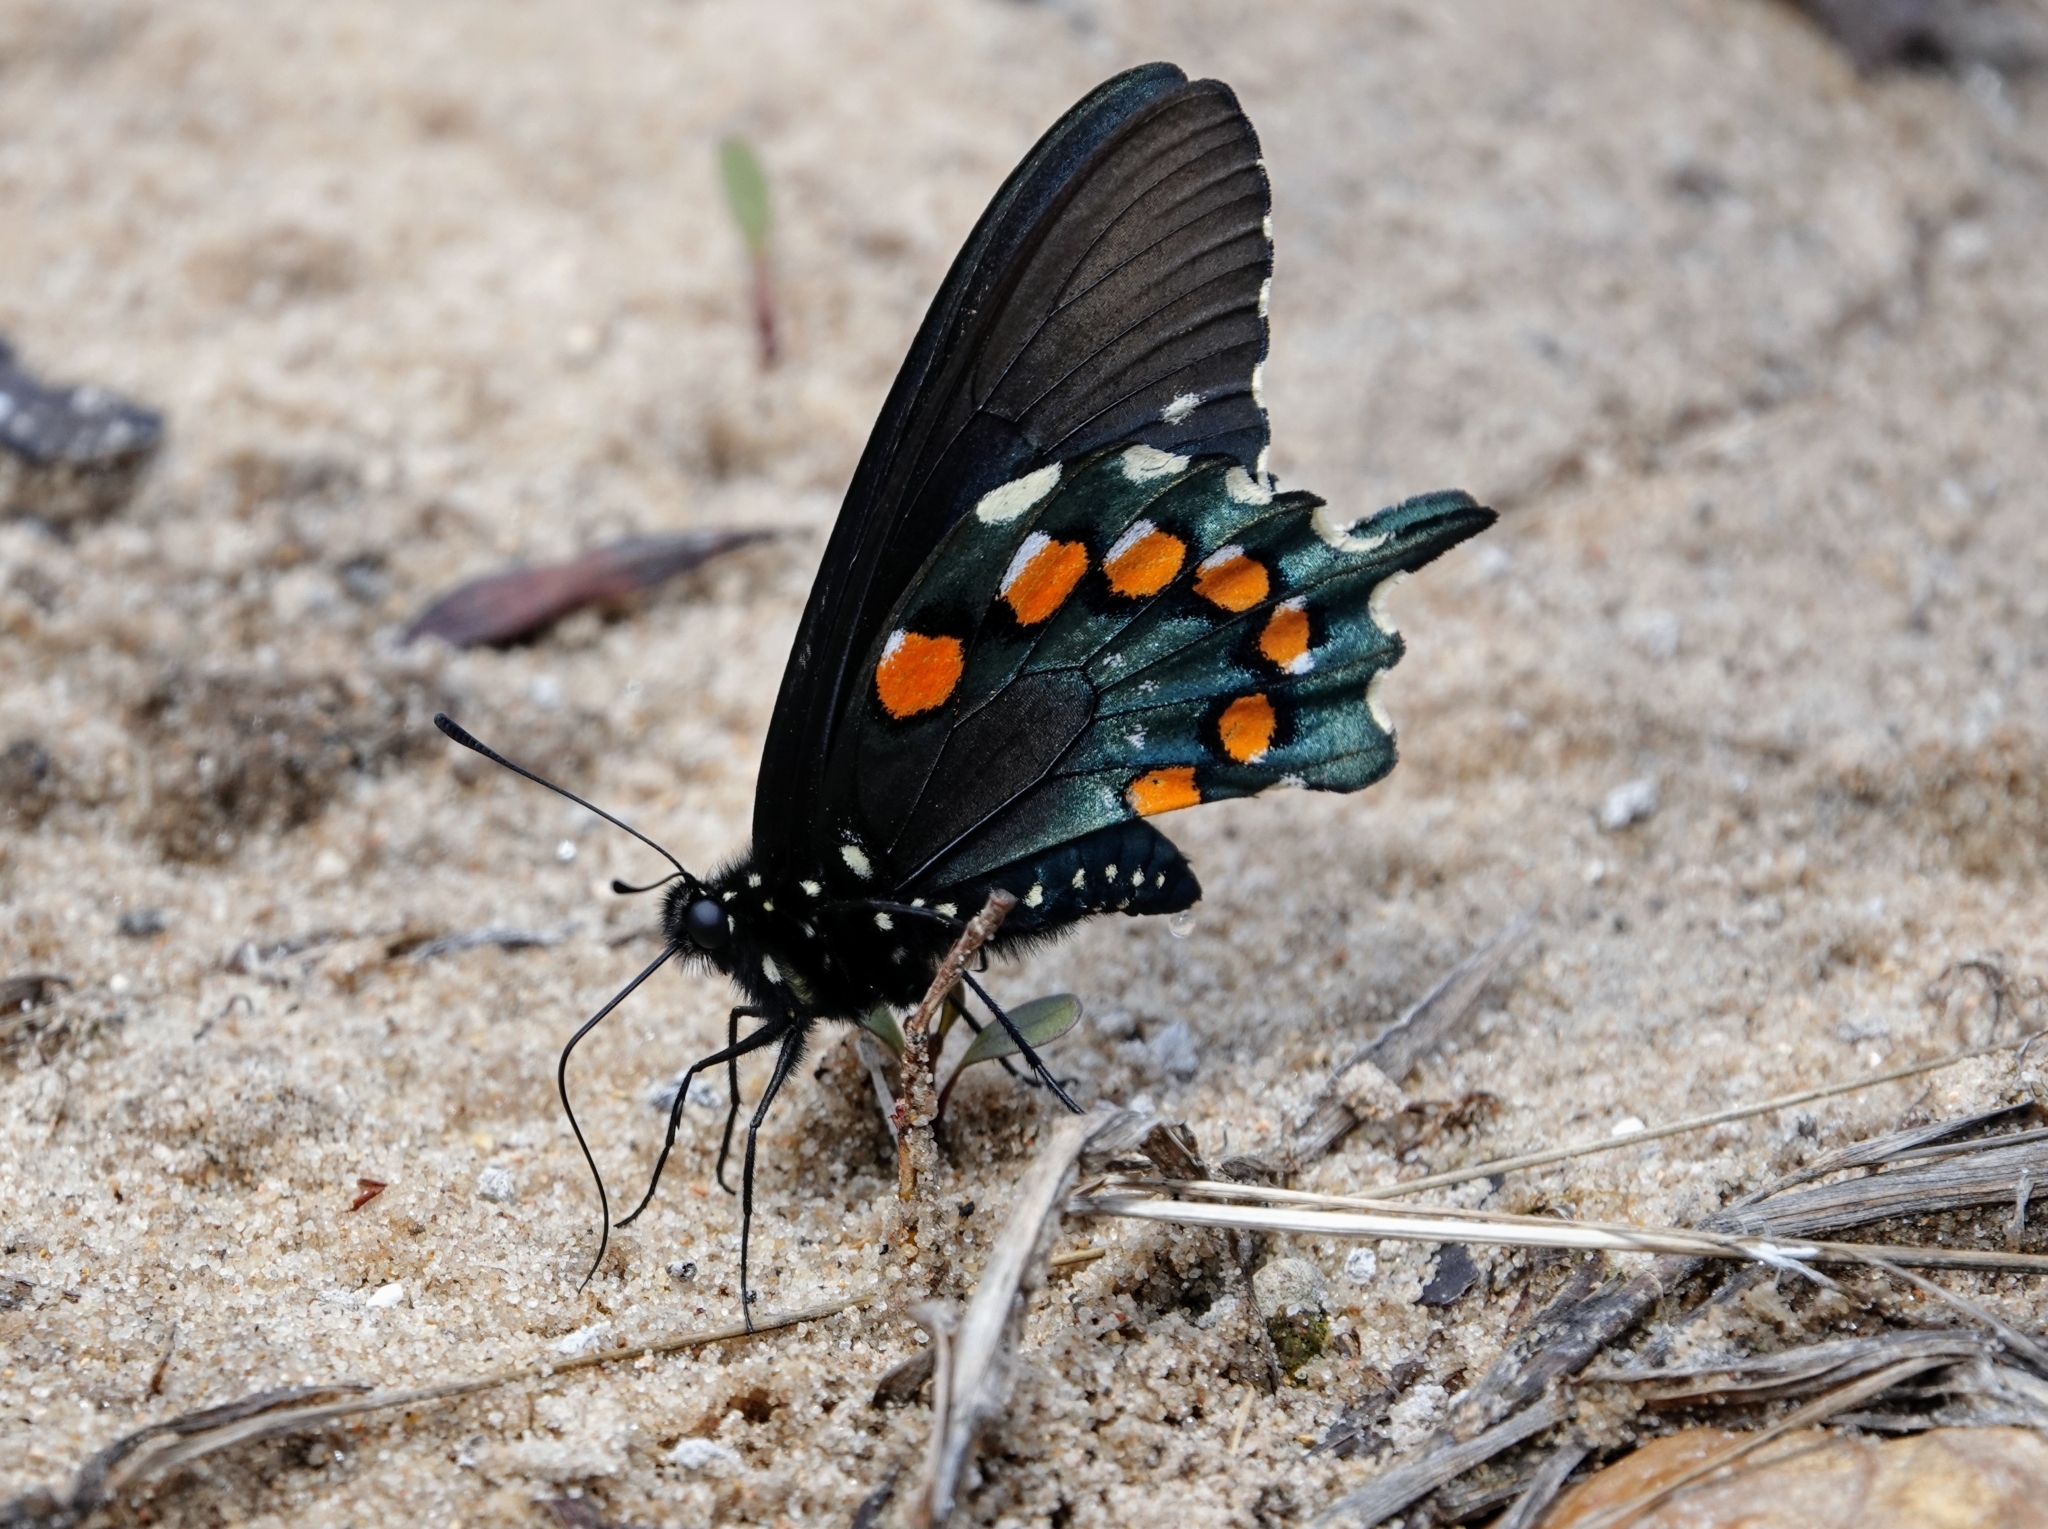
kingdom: Animalia
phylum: Arthropoda
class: Insecta
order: Lepidoptera
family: Papilionidae
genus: Battus
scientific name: Battus philenor
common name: Pipevine swallowtail
